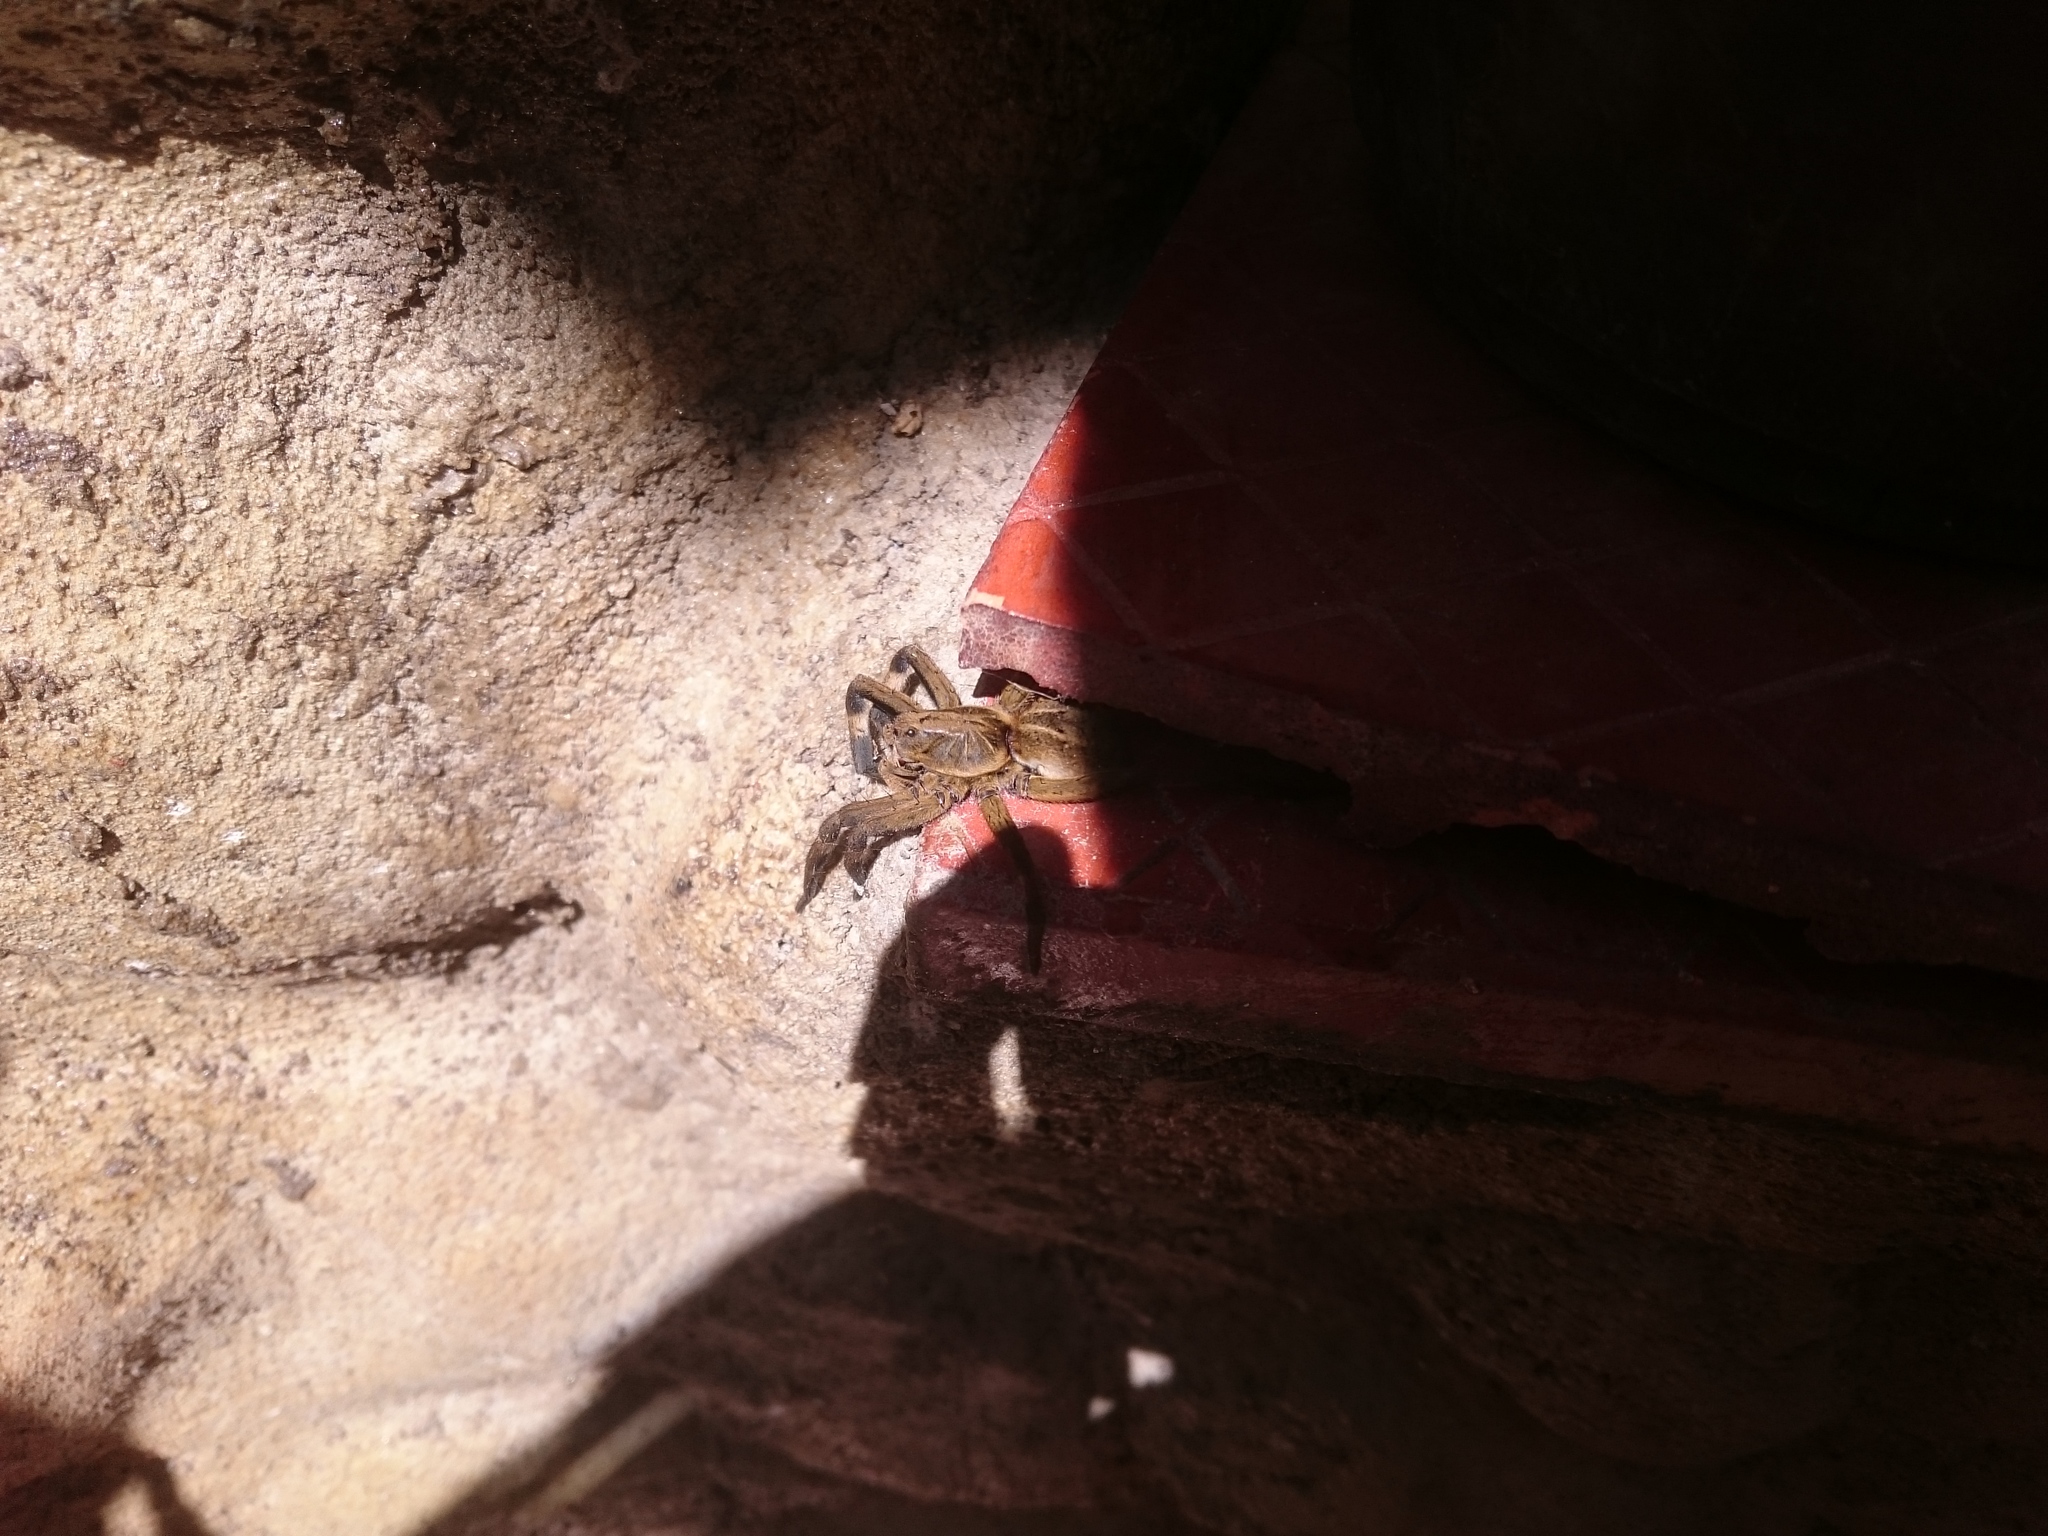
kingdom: Animalia
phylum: Arthropoda
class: Arachnida
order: Araneae
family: Lycosidae
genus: Lycosa
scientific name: Lycosa erythrognatha
